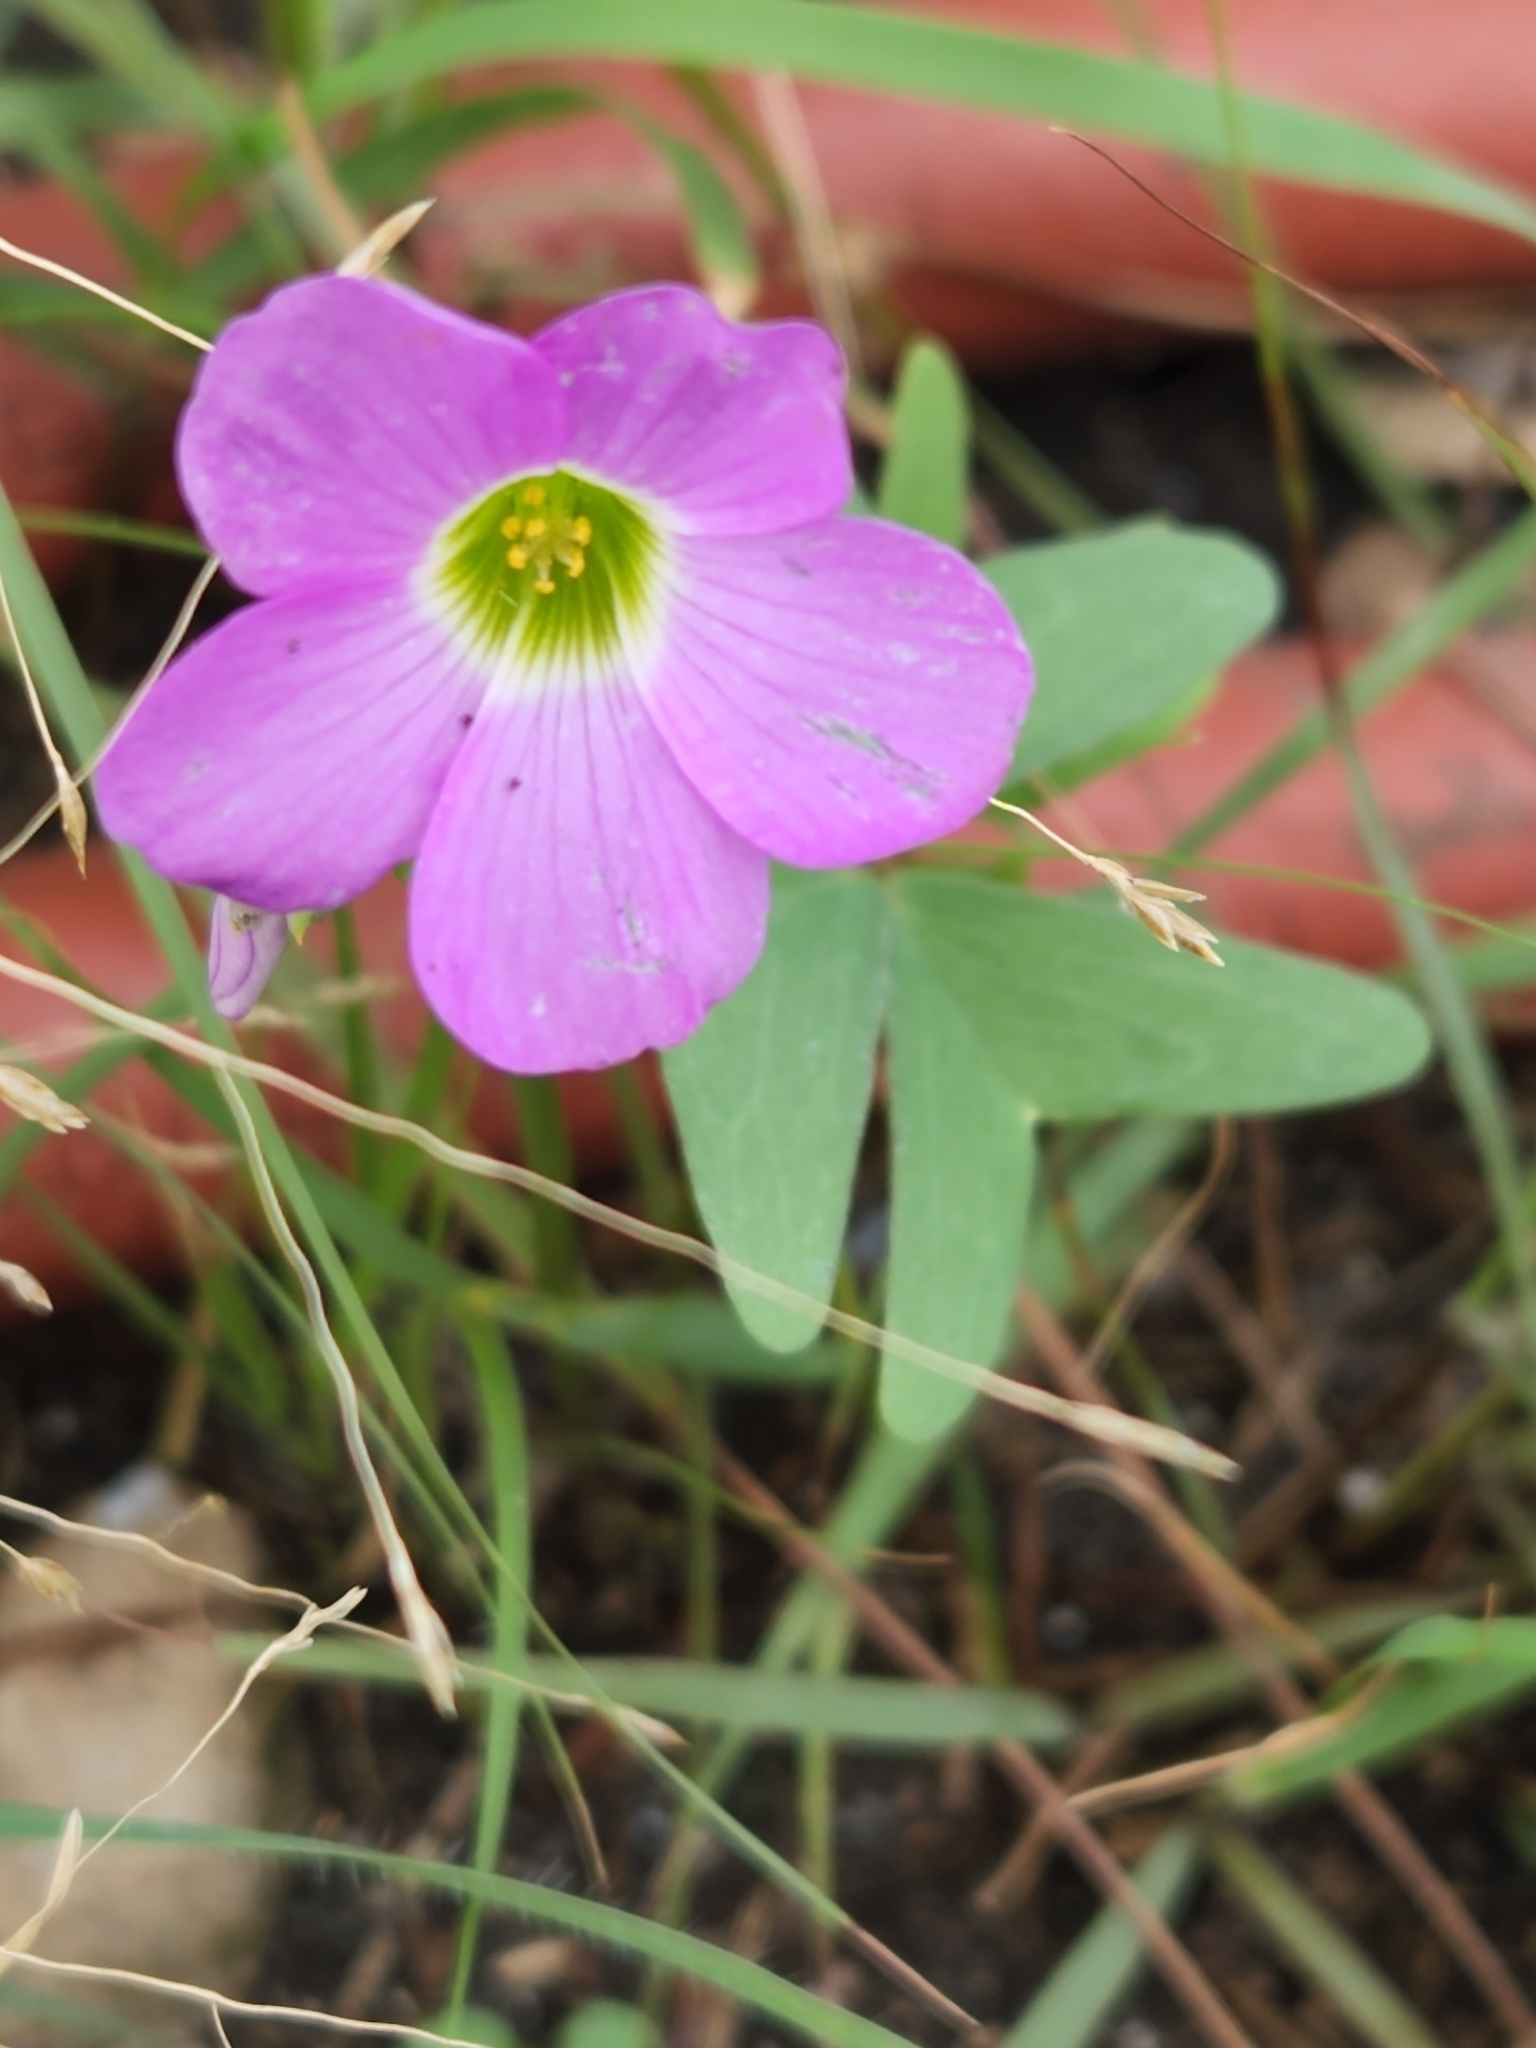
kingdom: Plantae
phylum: Tracheophyta
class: Magnoliopsida
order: Oxalidales
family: Oxalidaceae
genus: Oxalis
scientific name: Oxalis drummondii
